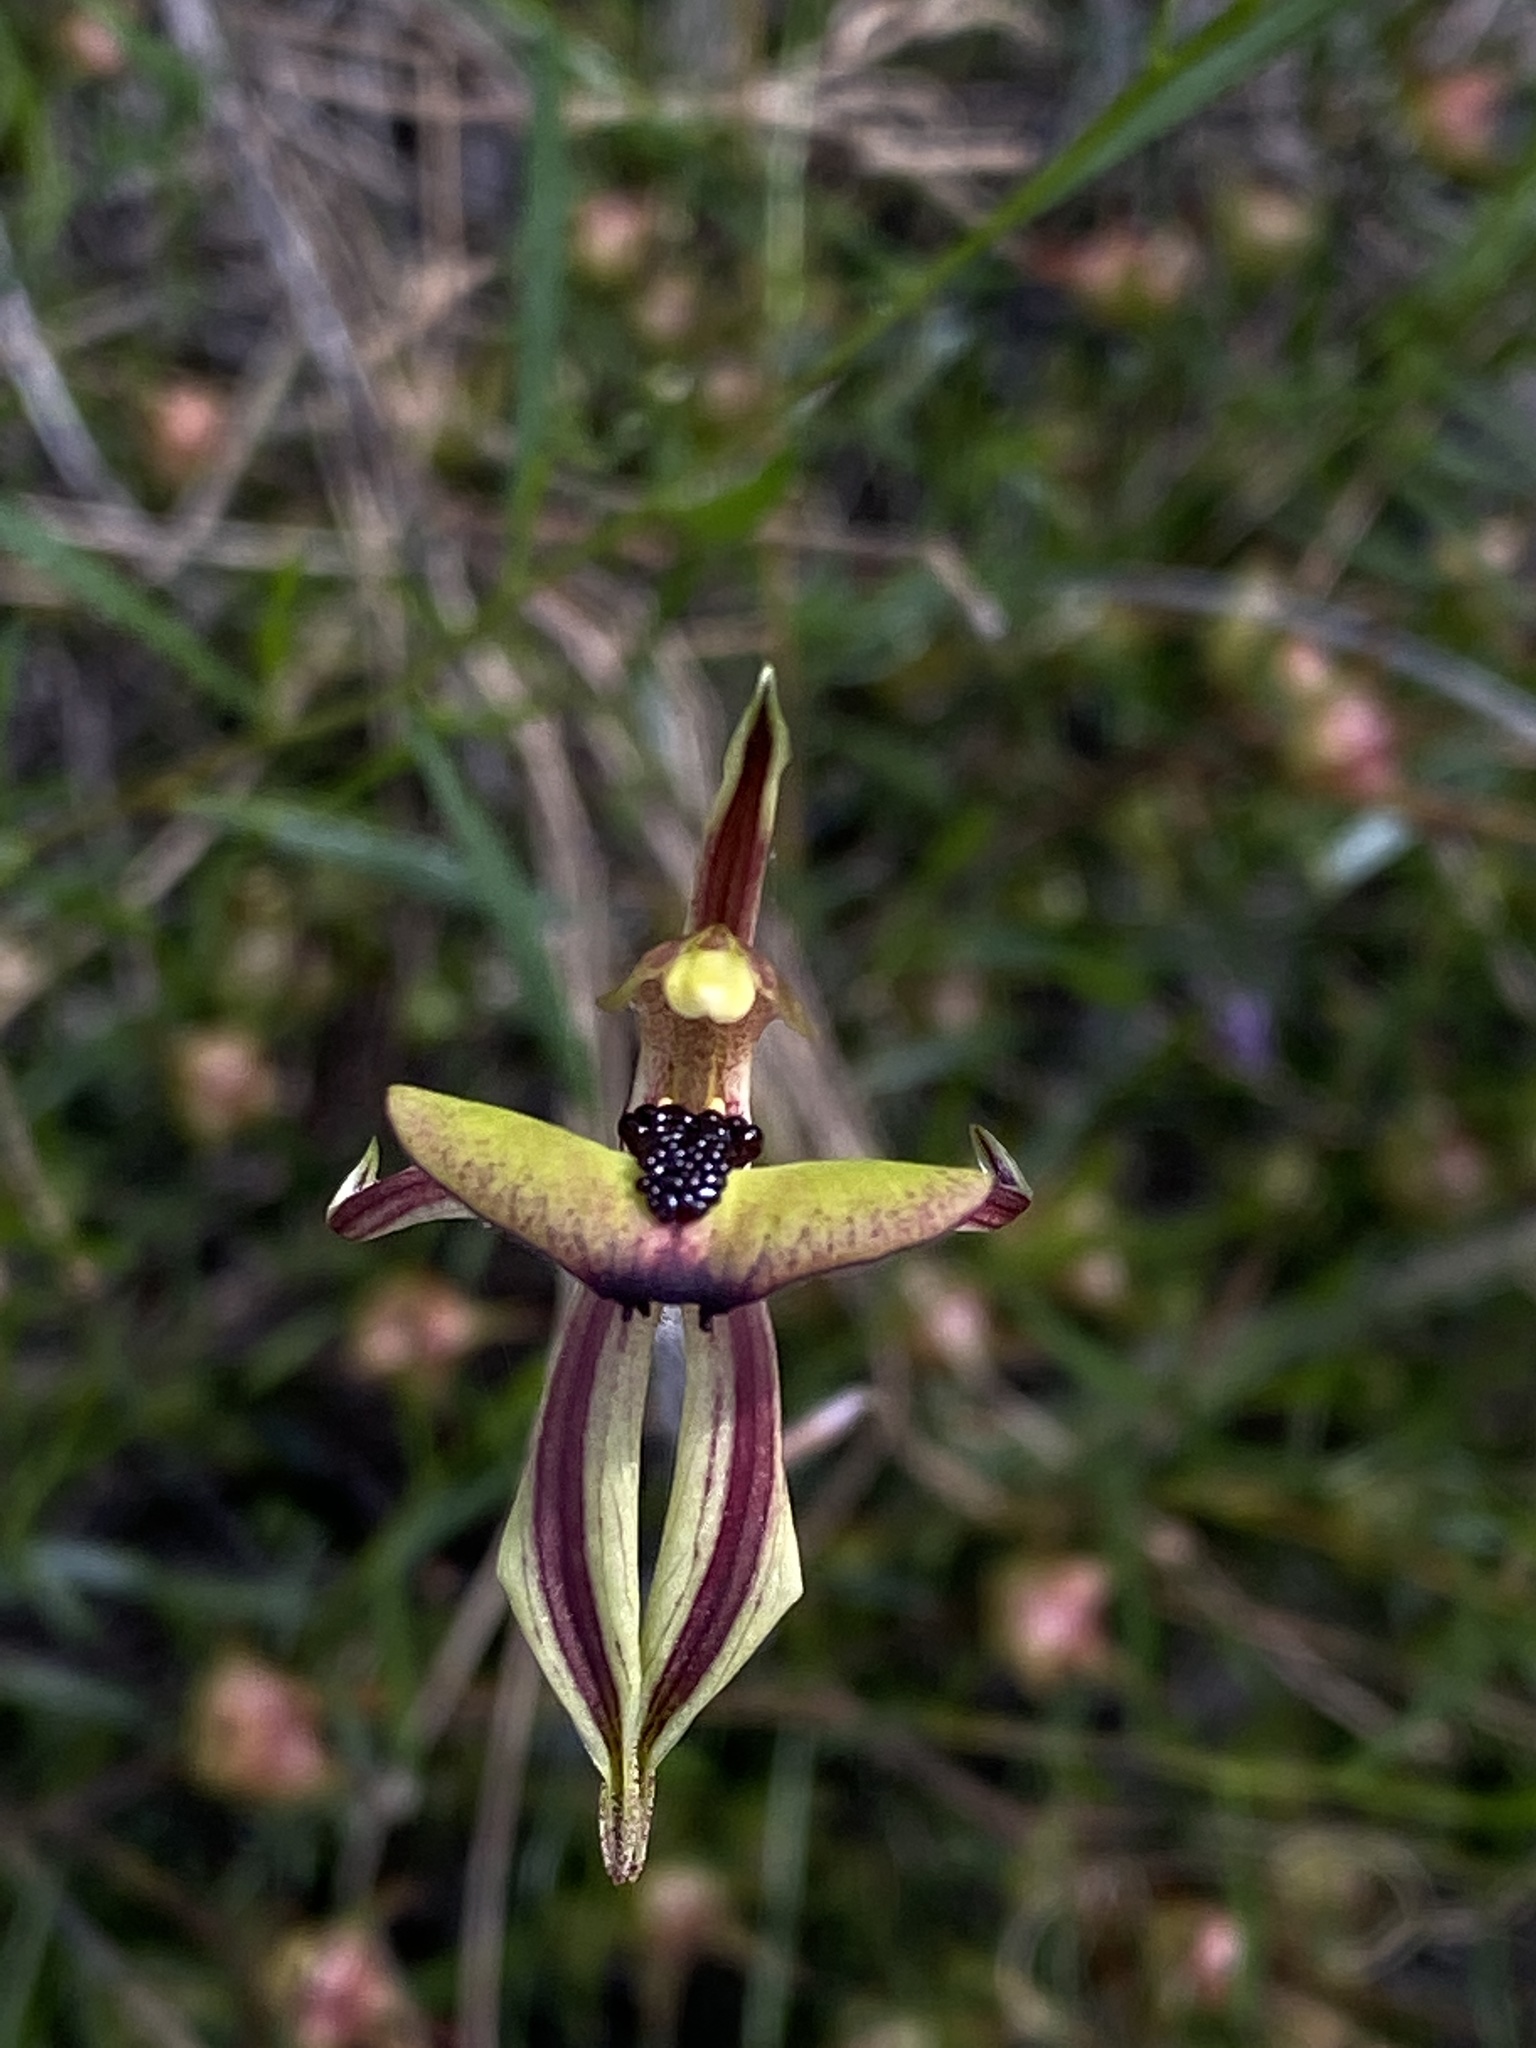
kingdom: Plantae
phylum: Tracheophyta
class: Liliopsida
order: Asparagales
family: Orchidaceae
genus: Caladenia
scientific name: Caladenia doutchiae
